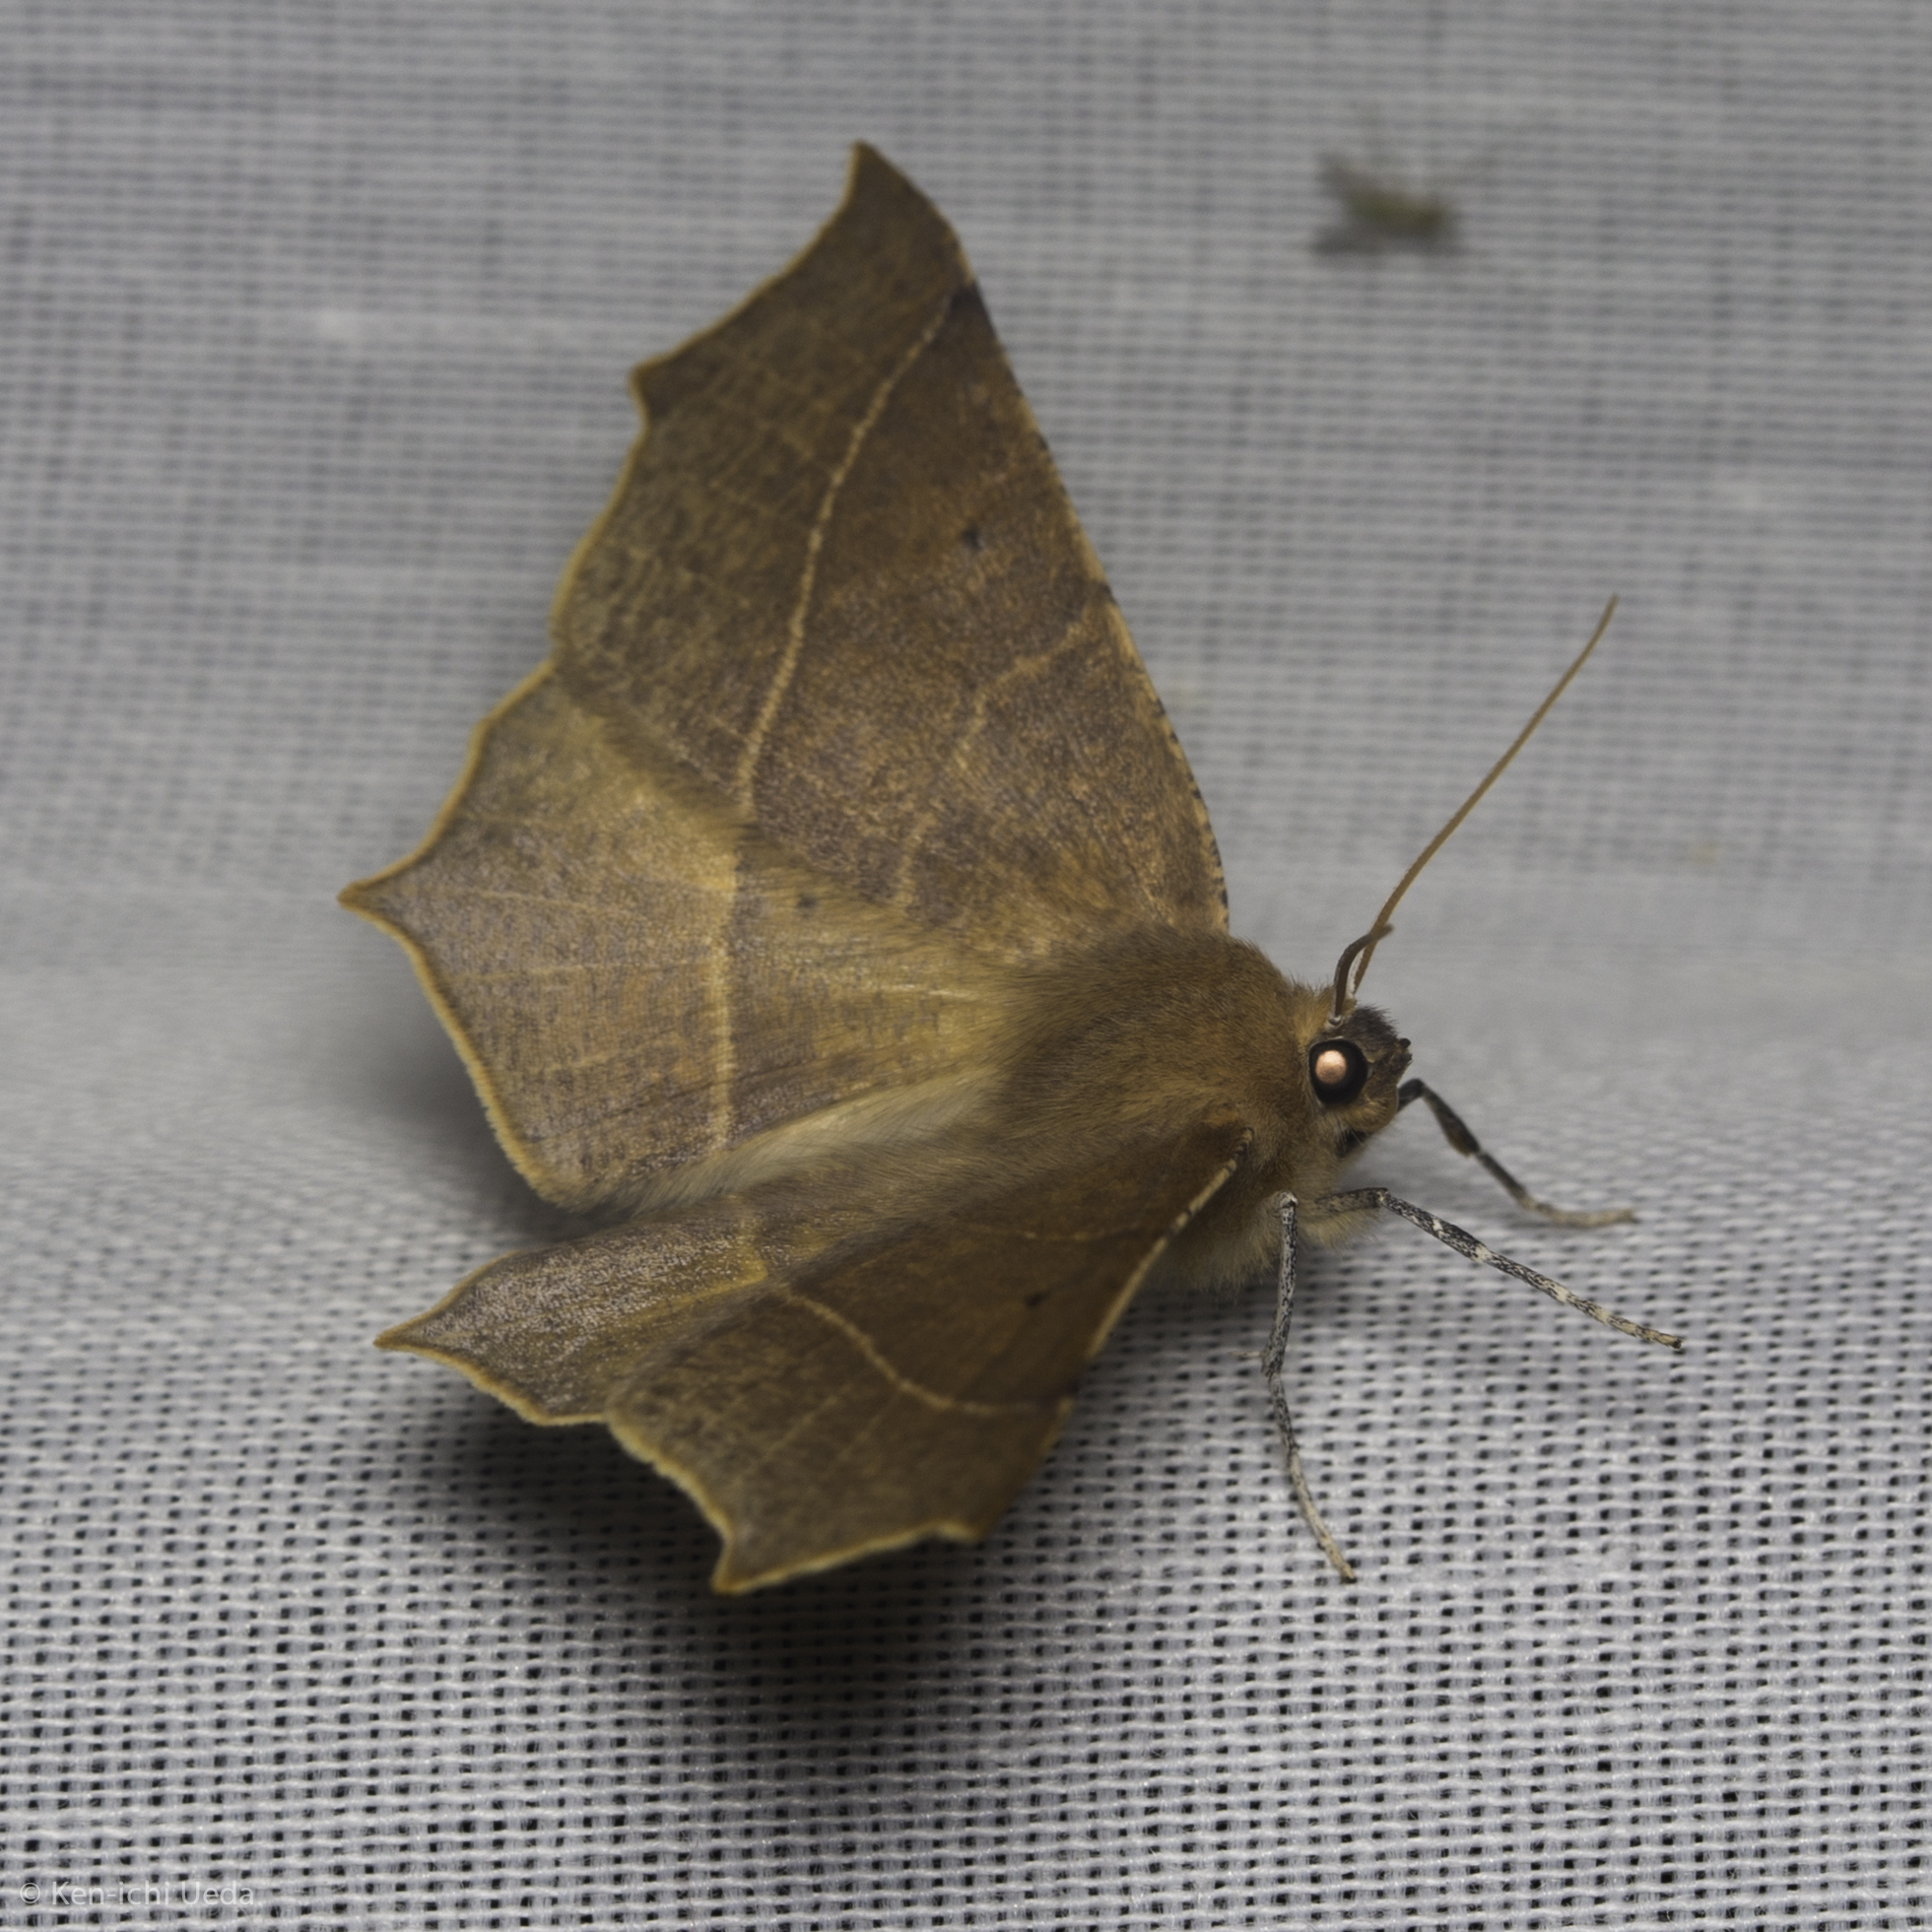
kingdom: Animalia
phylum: Arthropoda
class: Insecta
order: Lepidoptera
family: Geometridae
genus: Tetracis
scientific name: Tetracis cervinaria
